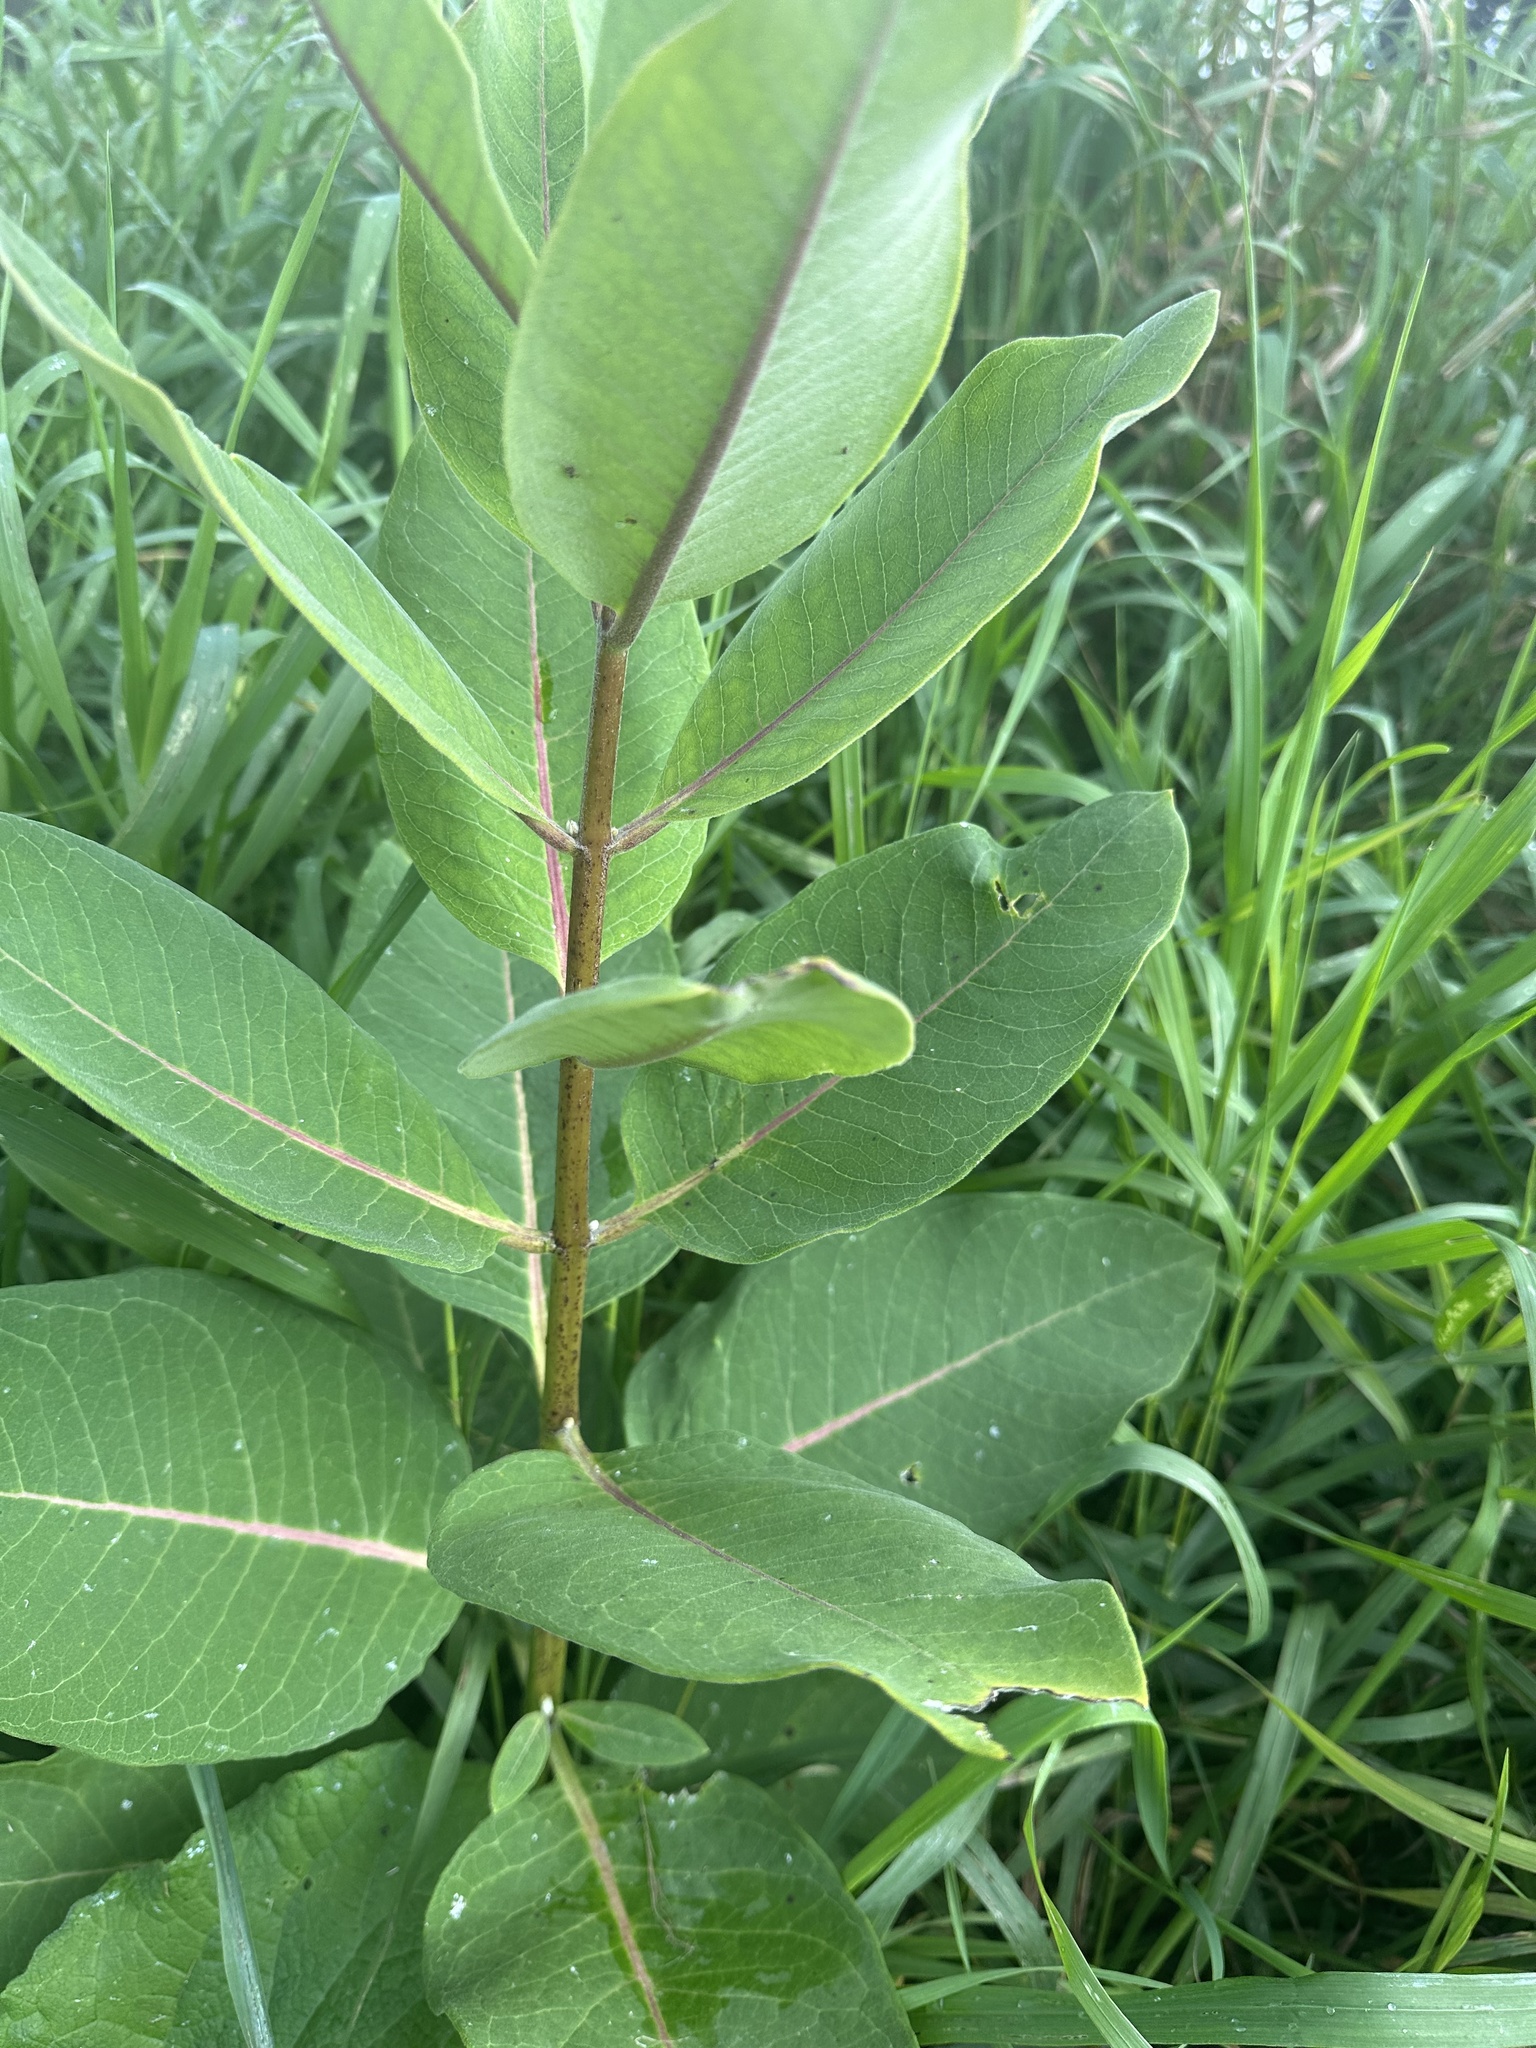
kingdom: Plantae
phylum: Tracheophyta
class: Magnoliopsida
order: Gentianales
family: Apocynaceae
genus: Asclepias
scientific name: Asclepias syriaca
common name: Common milkweed
